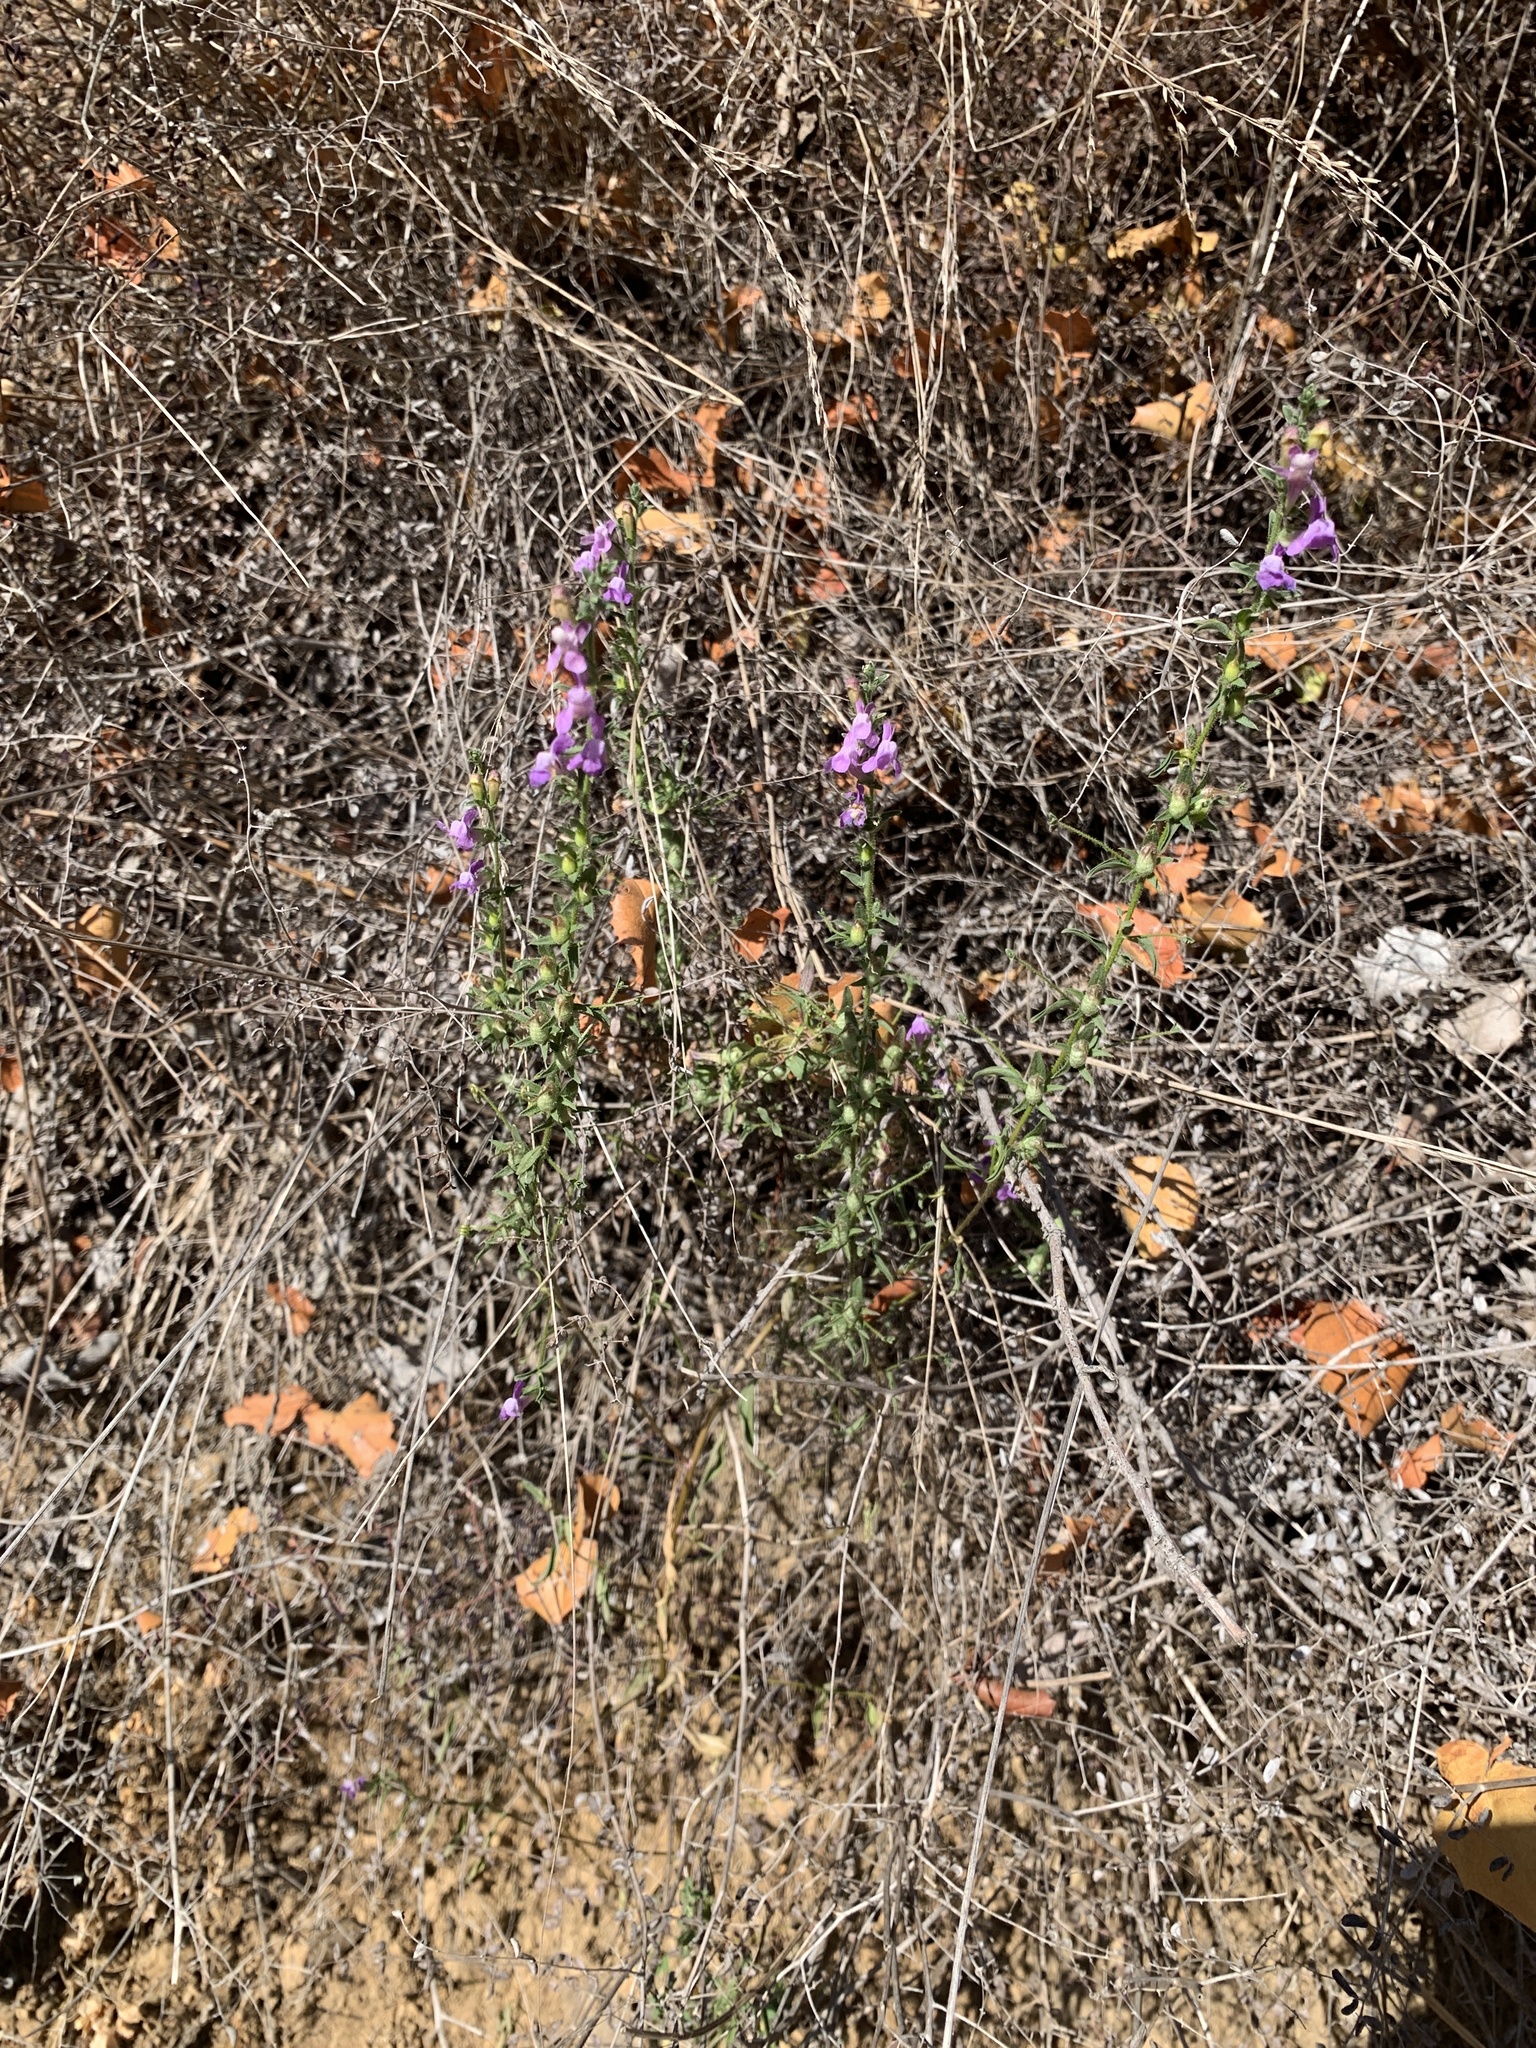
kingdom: Plantae
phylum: Tracheophyta
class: Magnoliopsida
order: Lamiales
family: Plantaginaceae
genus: Sairocarpus
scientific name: Sairocarpus vexillocalyculatus
